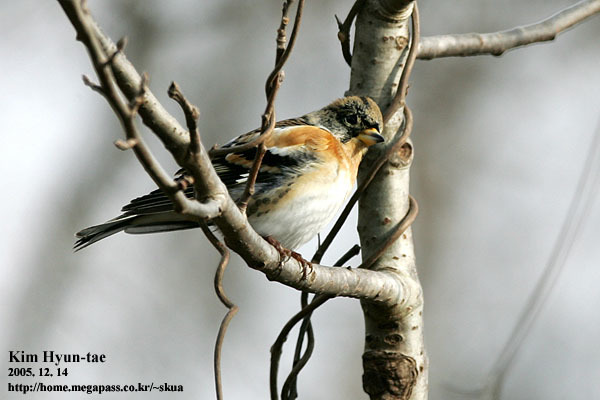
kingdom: Animalia
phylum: Chordata
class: Aves
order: Passeriformes
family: Fringillidae
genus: Fringilla
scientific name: Fringilla montifringilla
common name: Brambling
